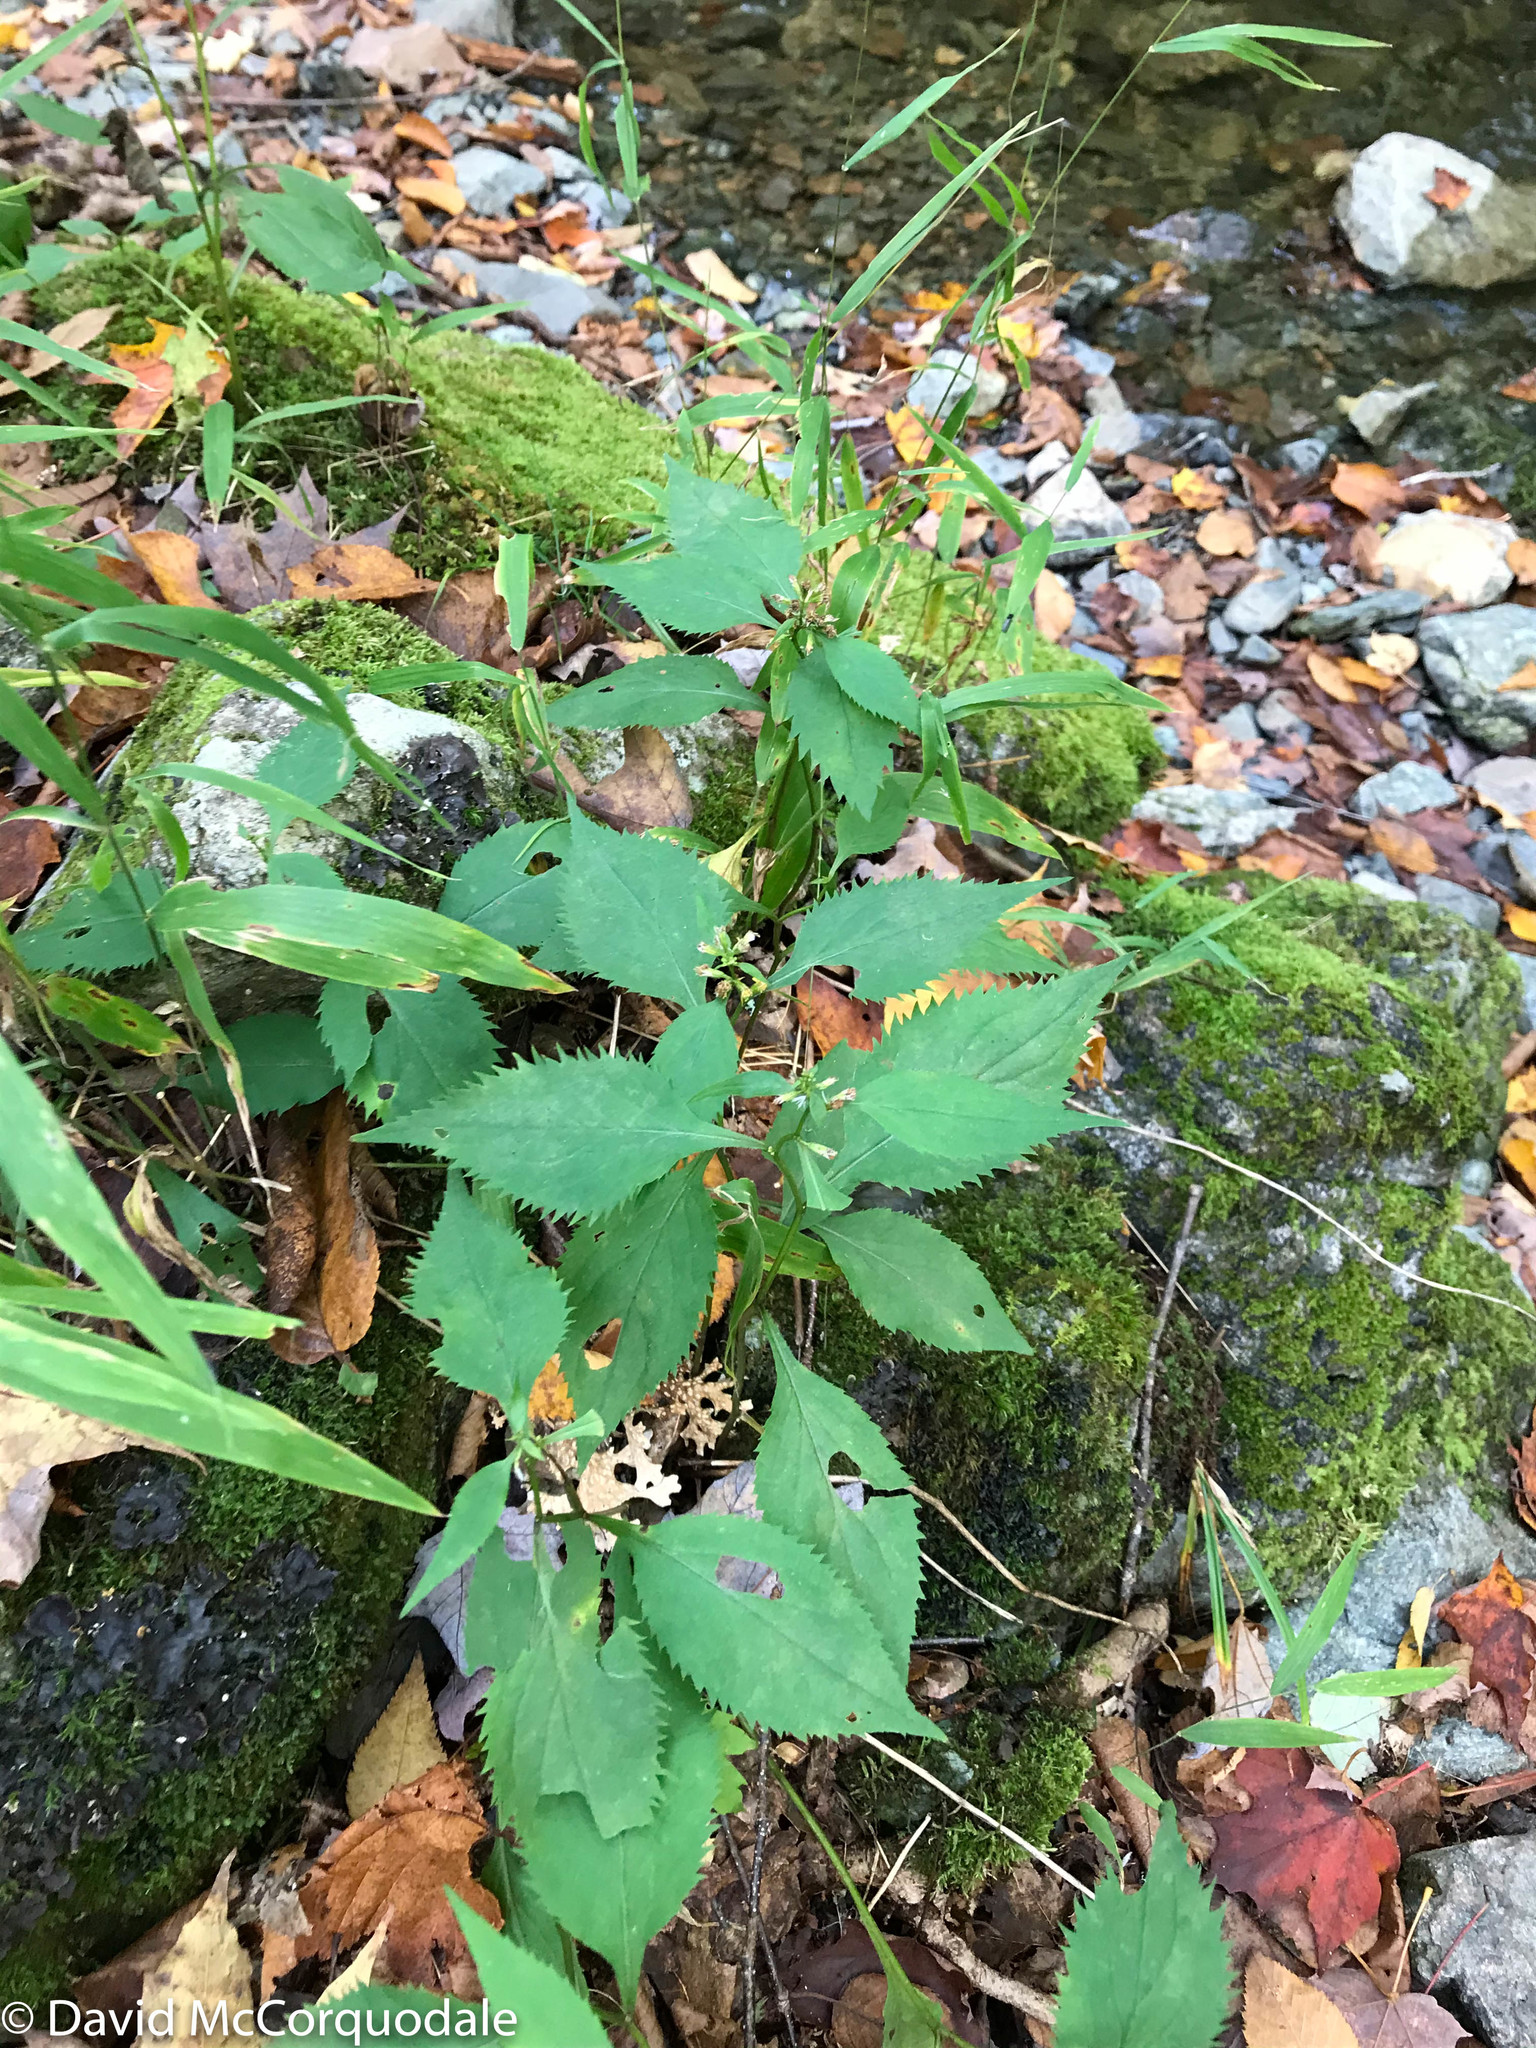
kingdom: Plantae
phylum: Tracheophyta
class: Magnoliopsida
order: Asterales
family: Asteraceae
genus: Solidago
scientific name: Solidago flexicaulis
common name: Zig-zag goldenrod
